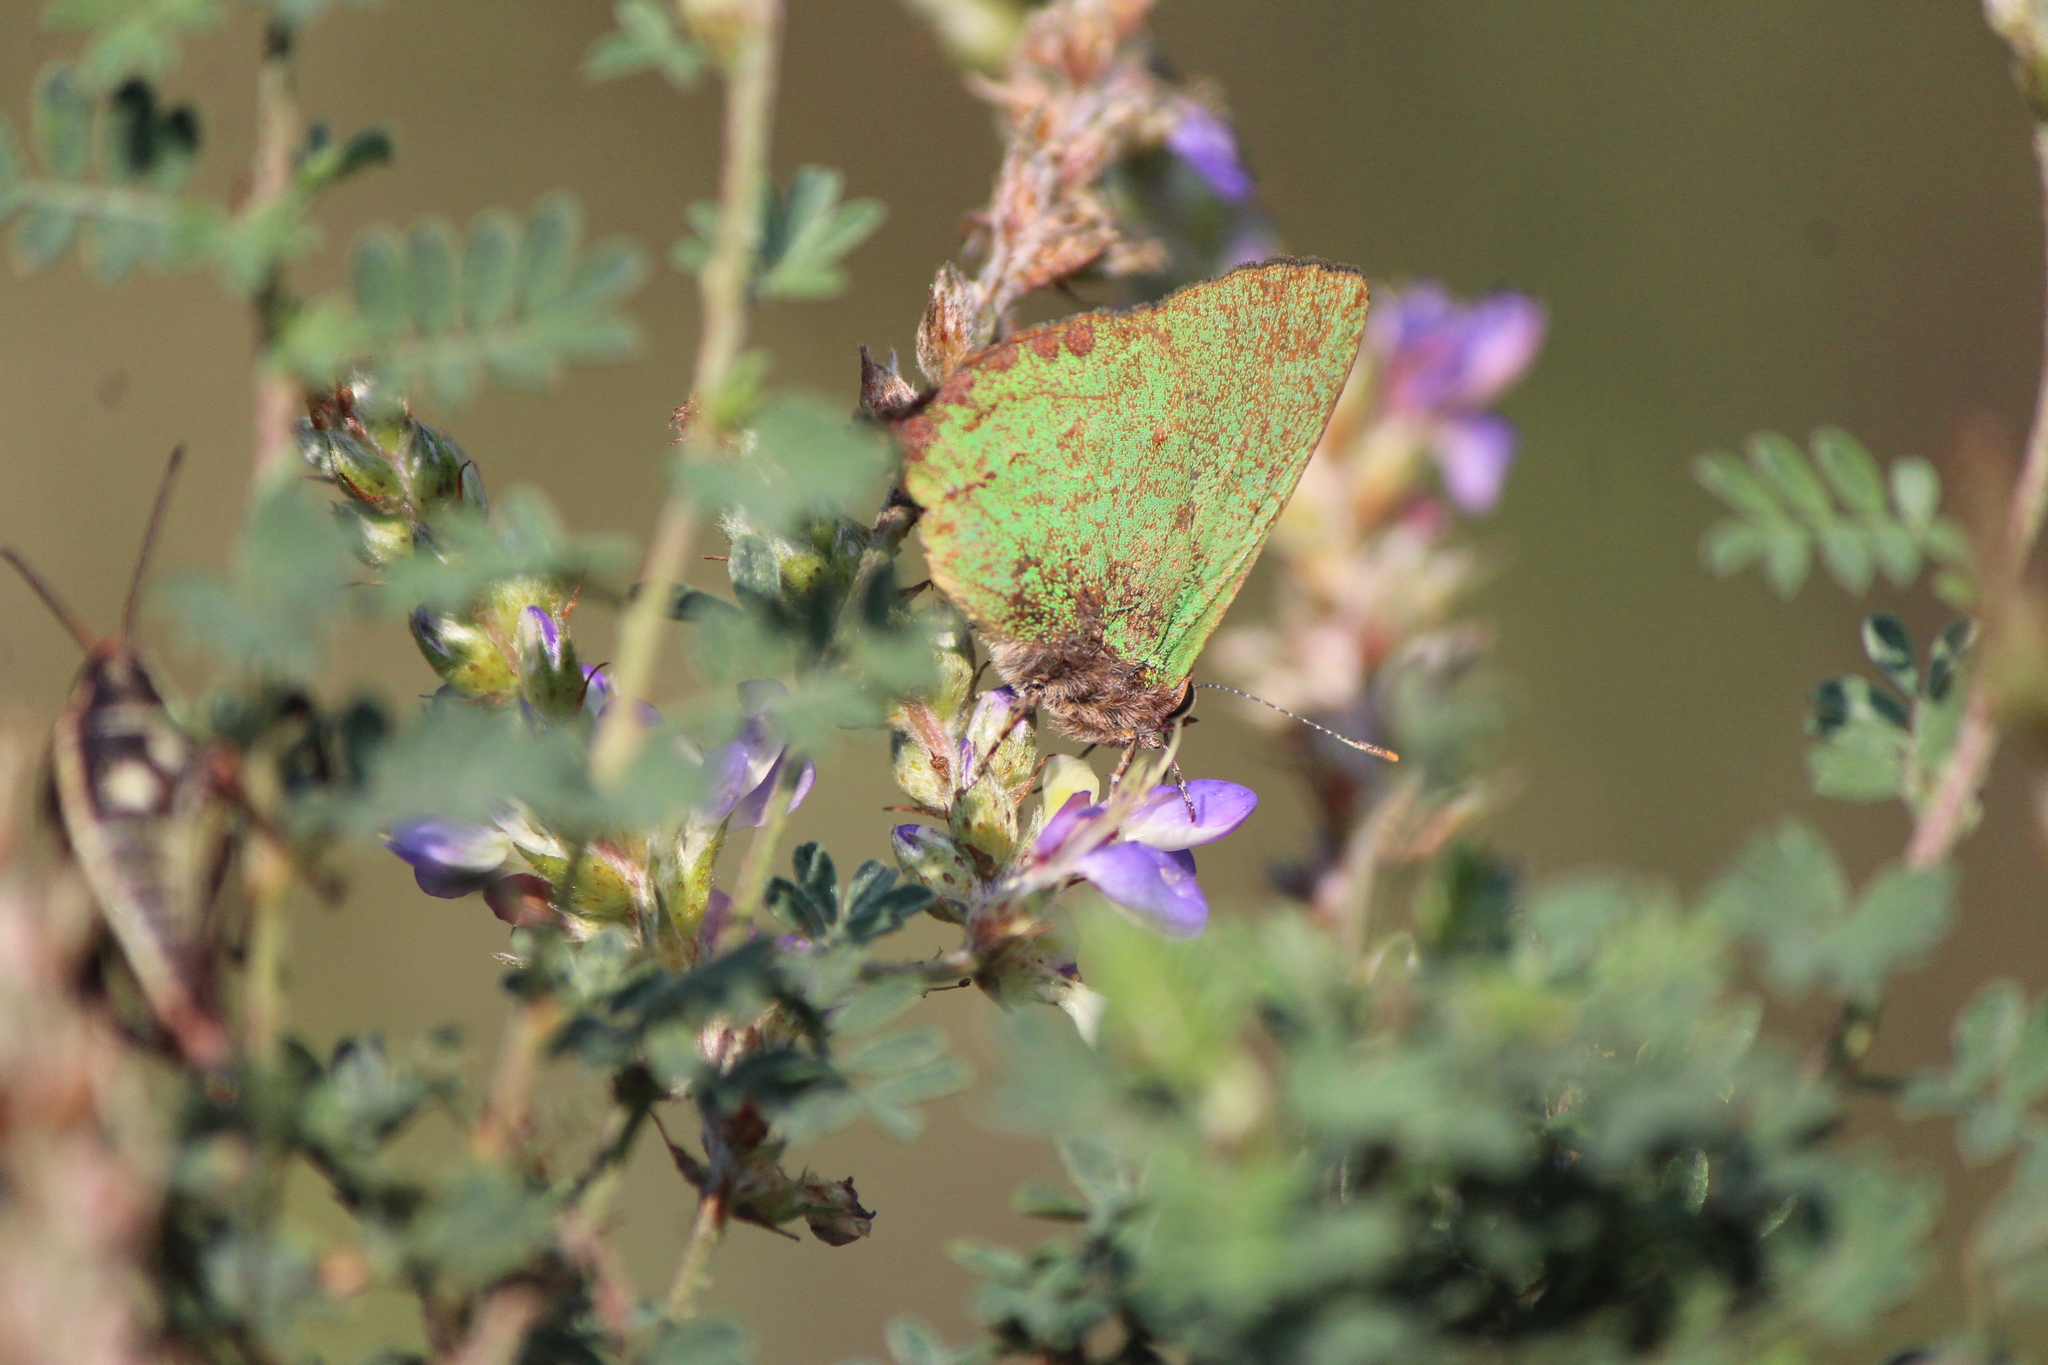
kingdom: Animalia
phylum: Arthropoda
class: Insecta
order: Lepidoptera
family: Lycaenidae
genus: Cyanophrys
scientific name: Cyanophrys longula
